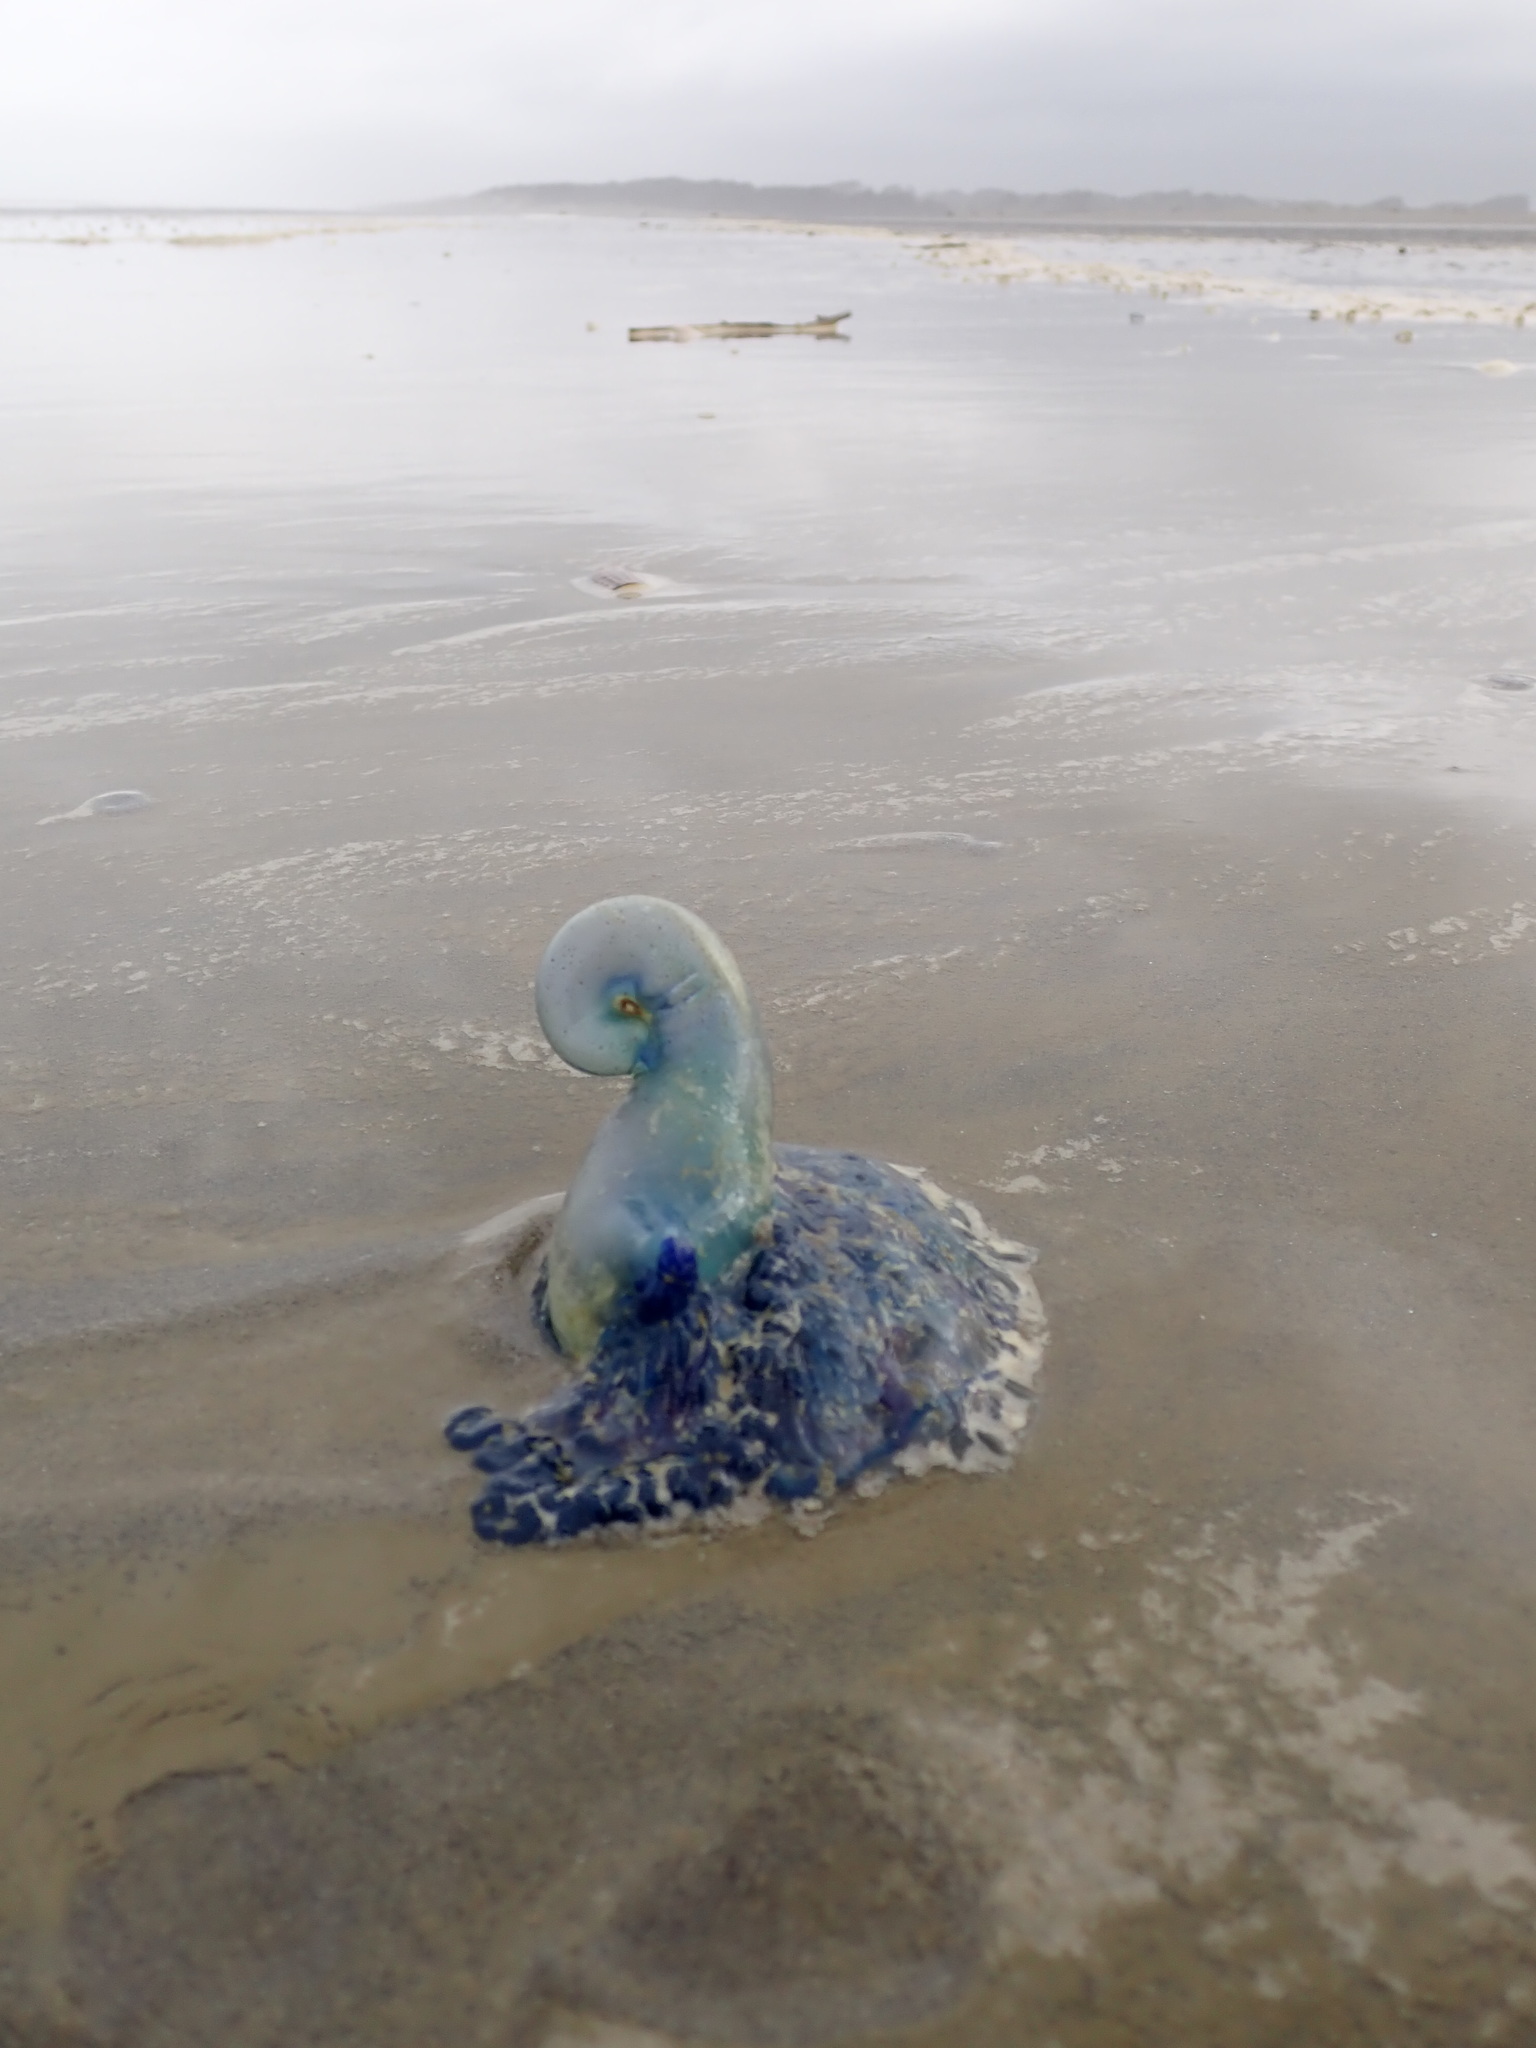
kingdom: Animalia
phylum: Cnidaria
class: Hydrozoa
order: Siphonophorae
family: Physaliidae
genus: Physalia
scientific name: Physalia physalis
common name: Portuguese man-of-war
